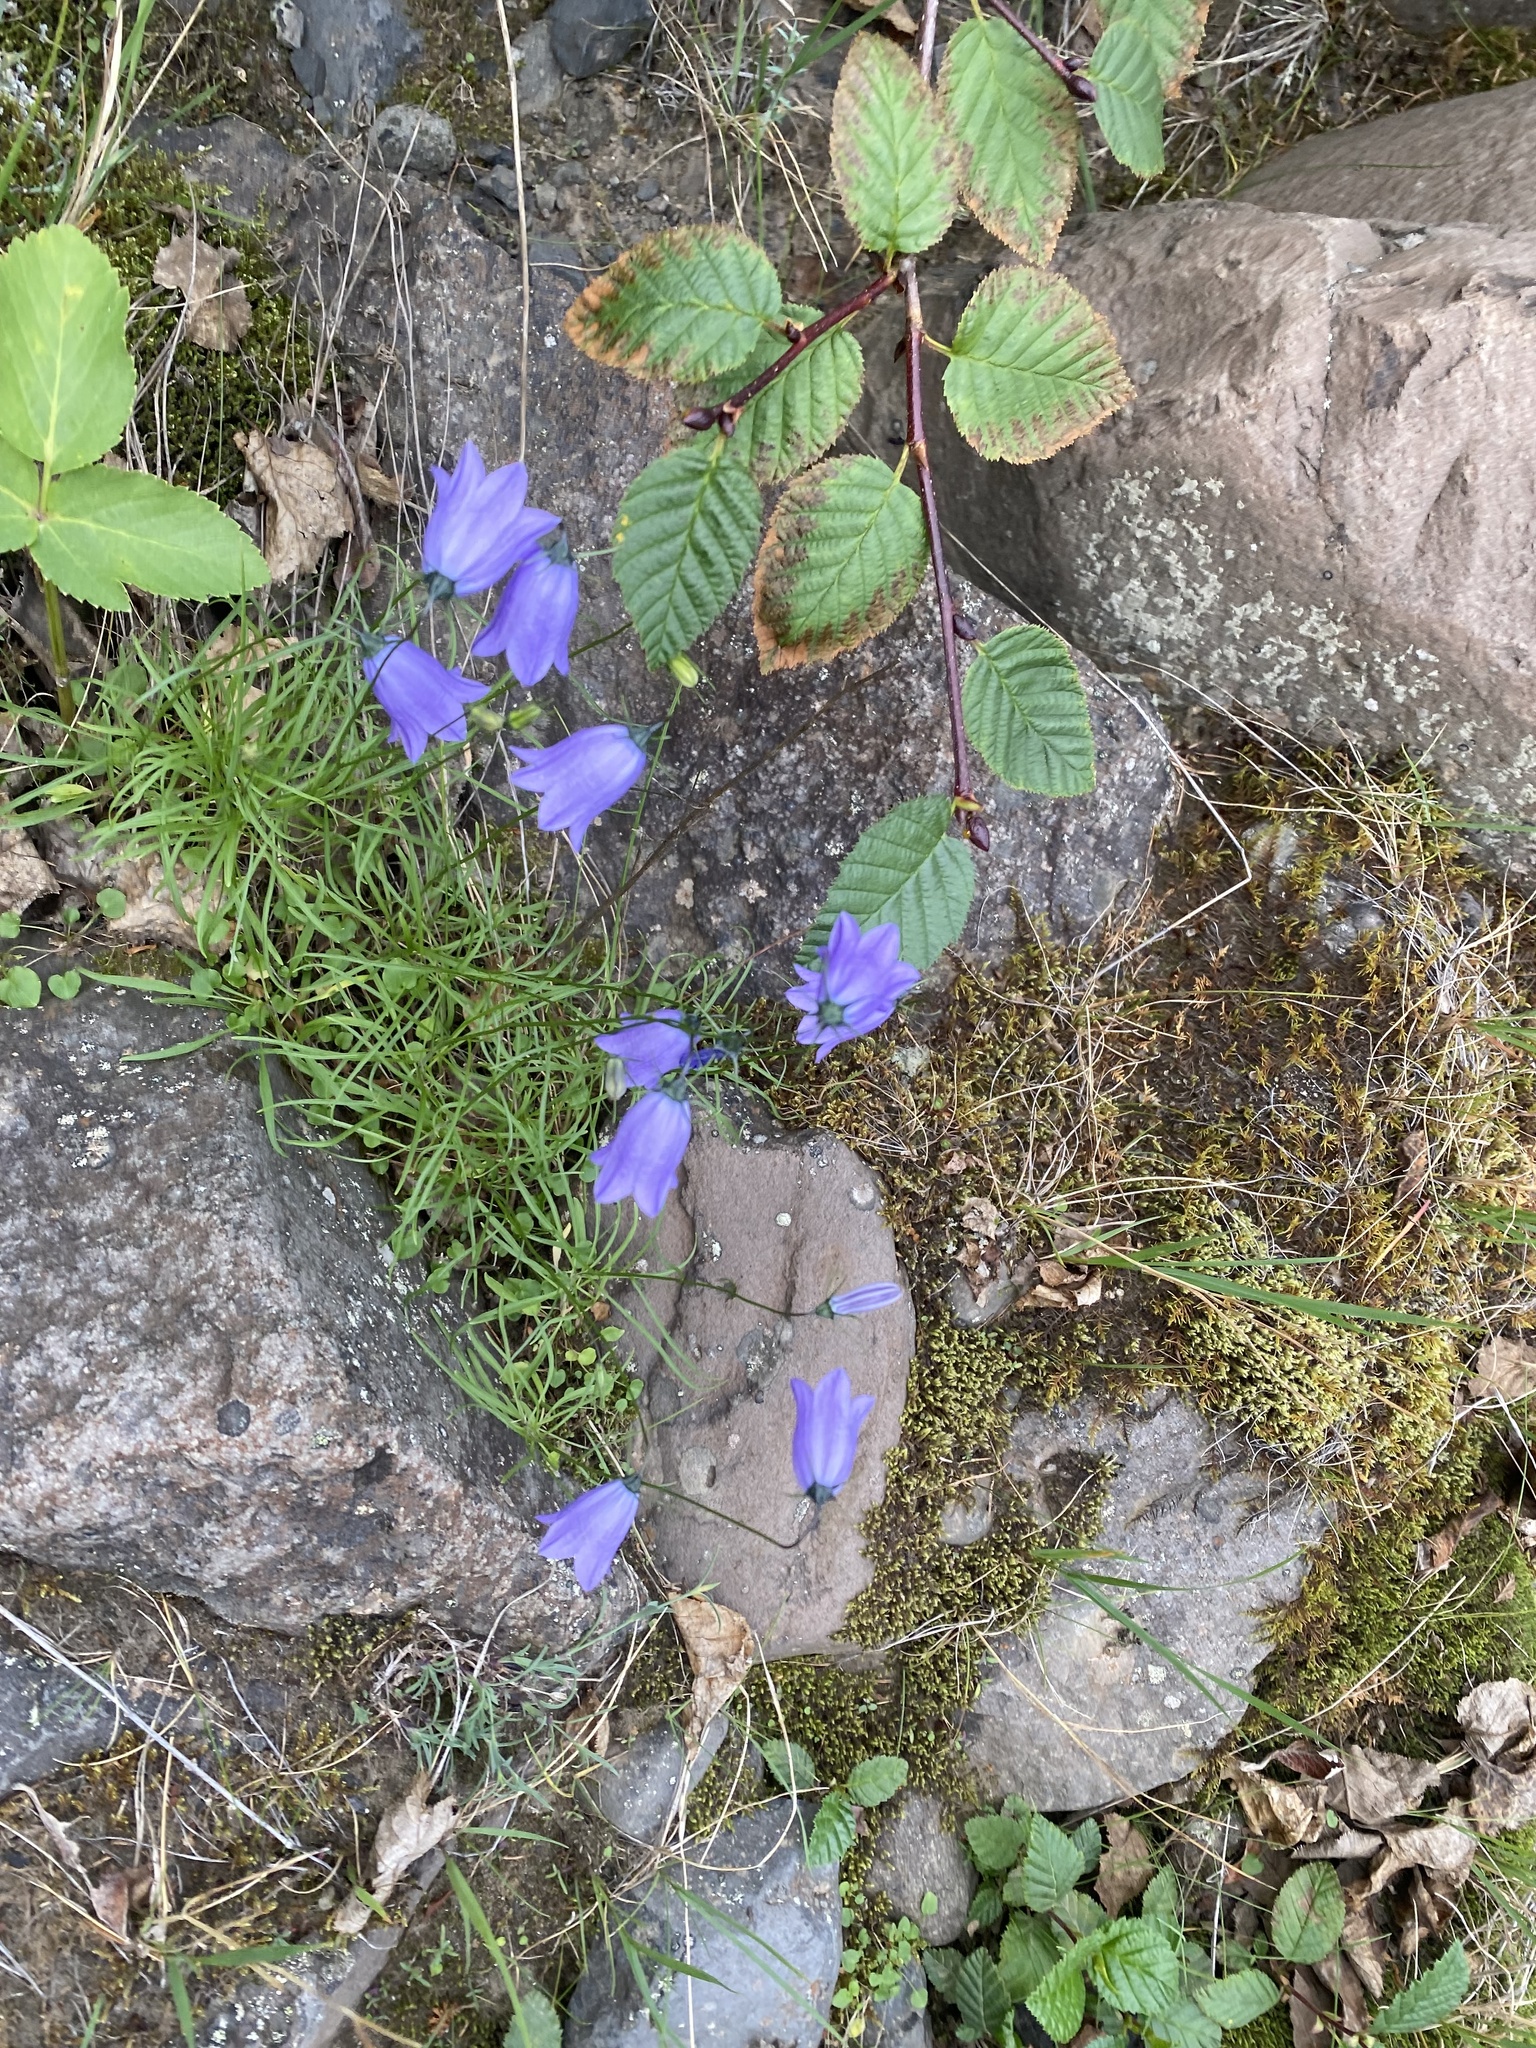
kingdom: Plantae
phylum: Tracheophyta
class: Magnoliopsida
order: Asterales
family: Campanulaceae
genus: Campanula
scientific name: Campanula rotundifolia
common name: Harebell
